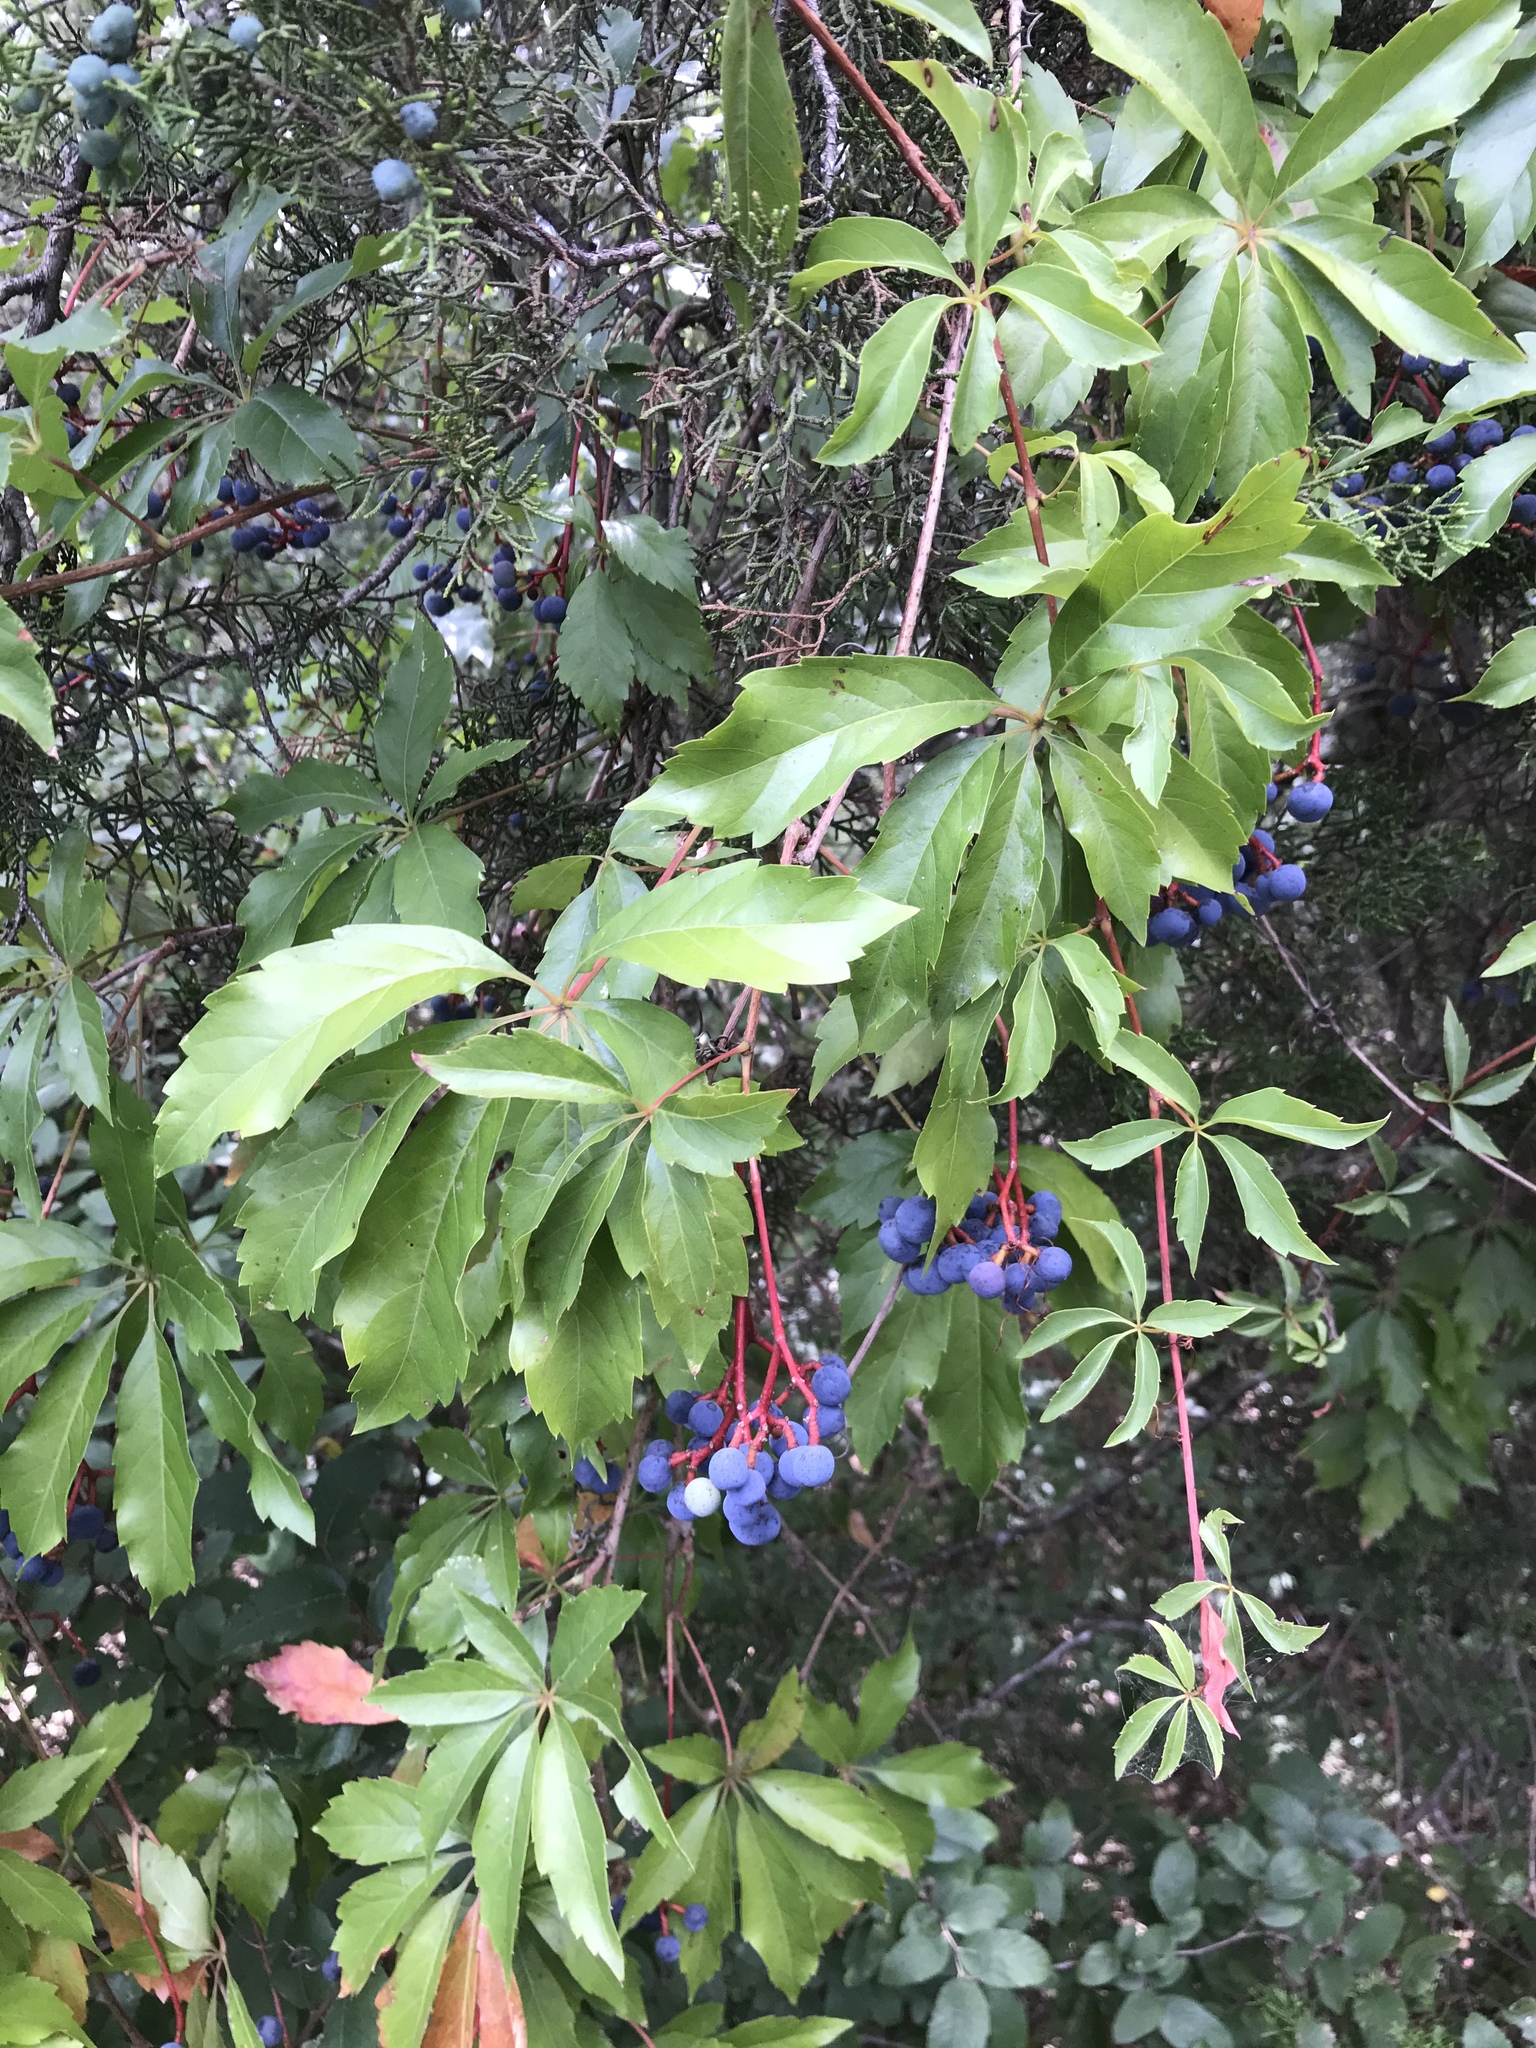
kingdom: Plantae
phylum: Tracheophyta
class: Magnoliopsida
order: Vitales
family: Vitaceae
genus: Parthenocissus
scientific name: Parthenocissus heptaphylla
